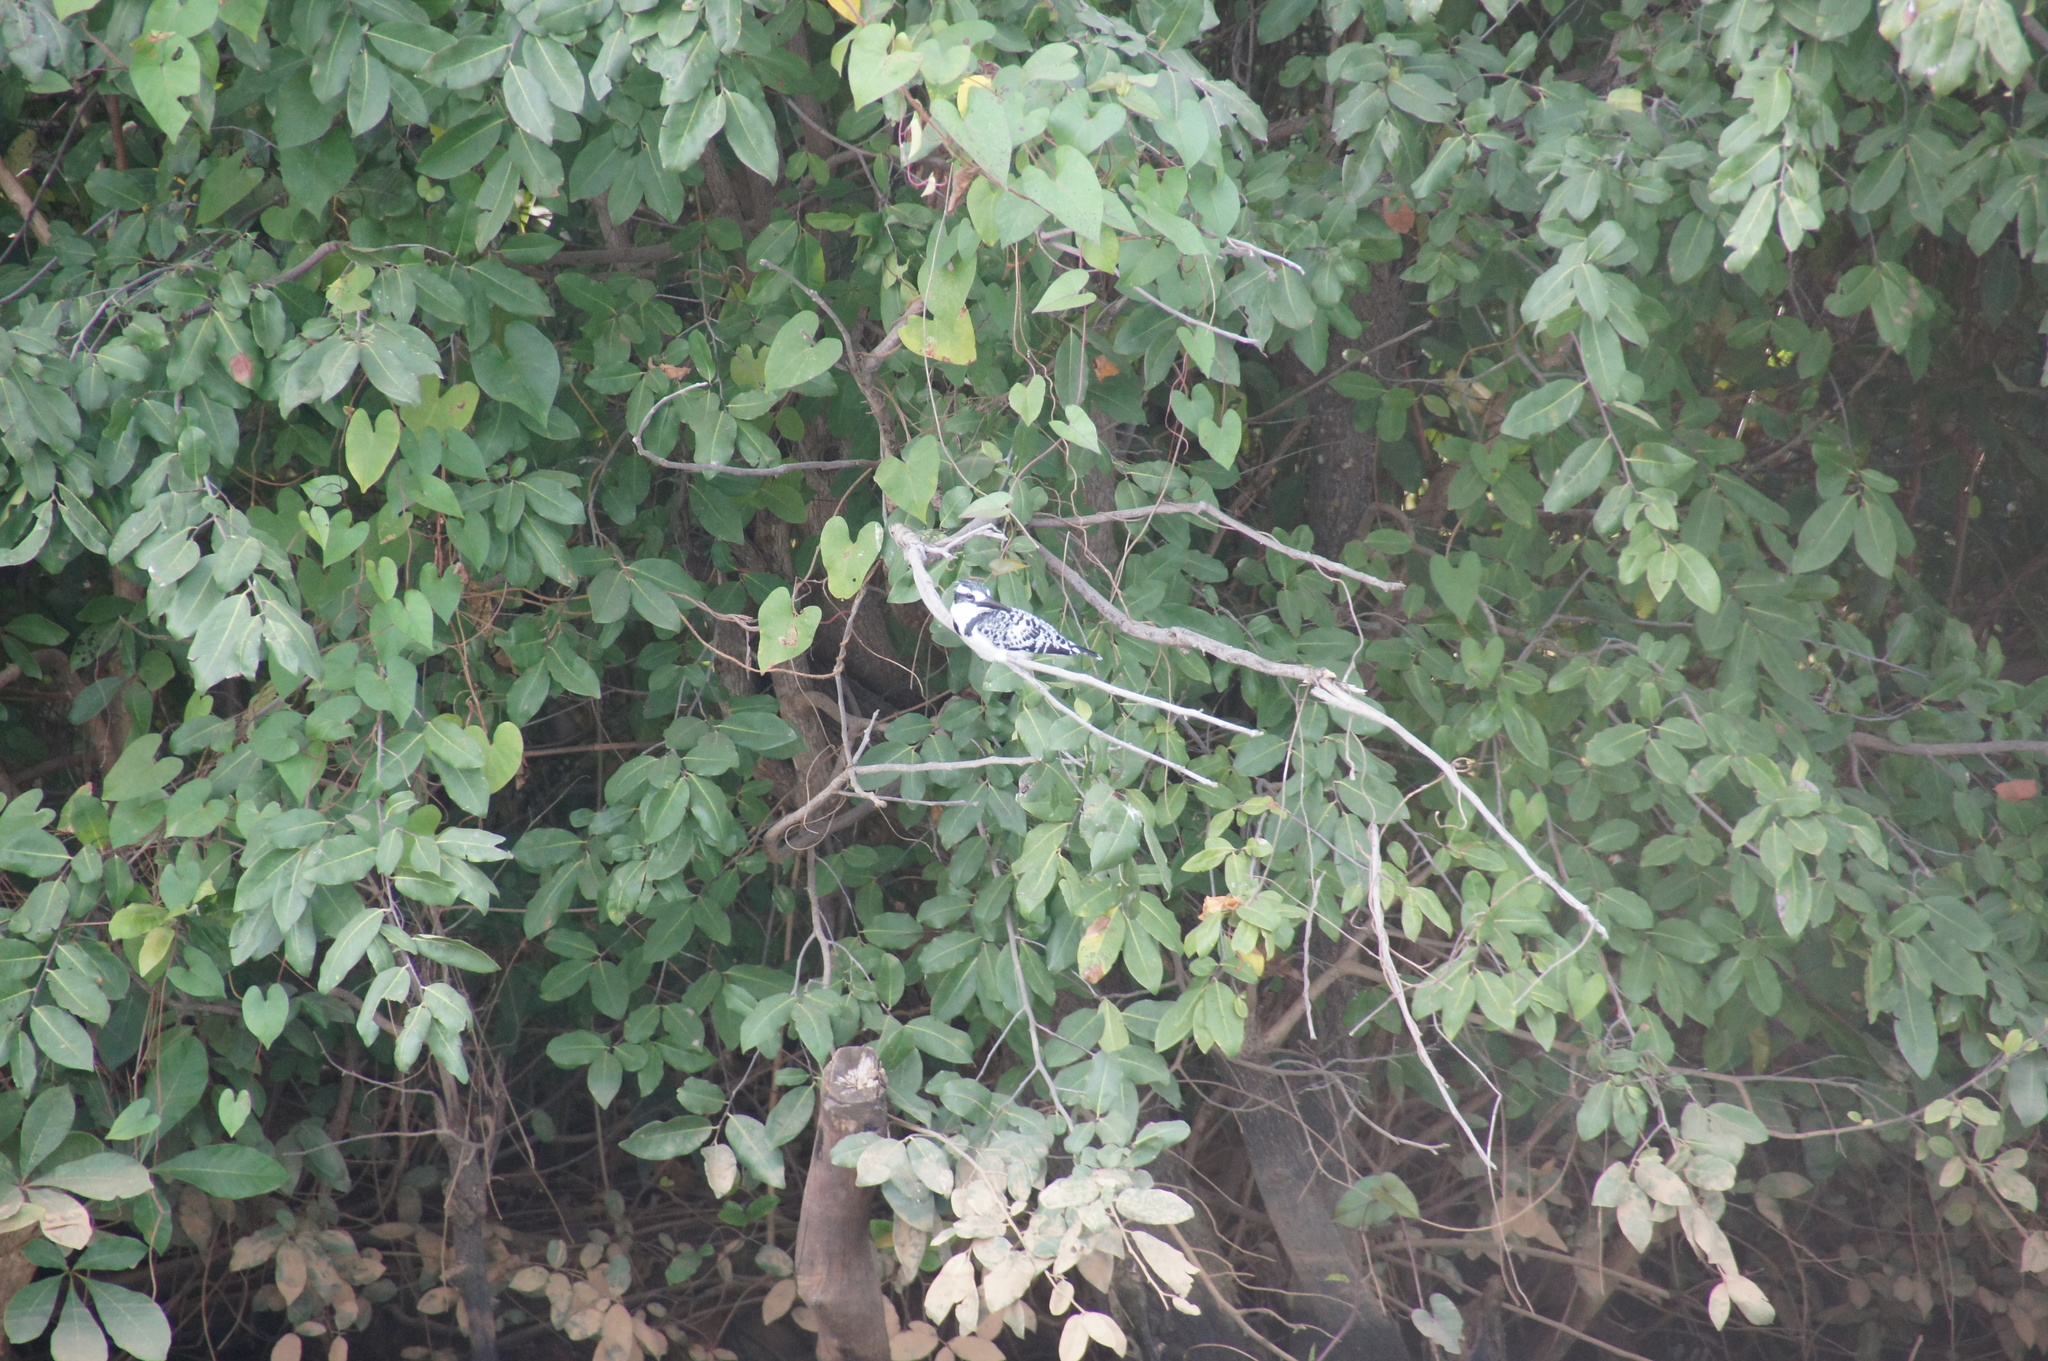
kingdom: Animalia
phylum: Chordata
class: Aves
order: Coraciiformes
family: Alcedinidae
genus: Ceryle
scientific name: Ceryle rudis
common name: Pied kingfisher
